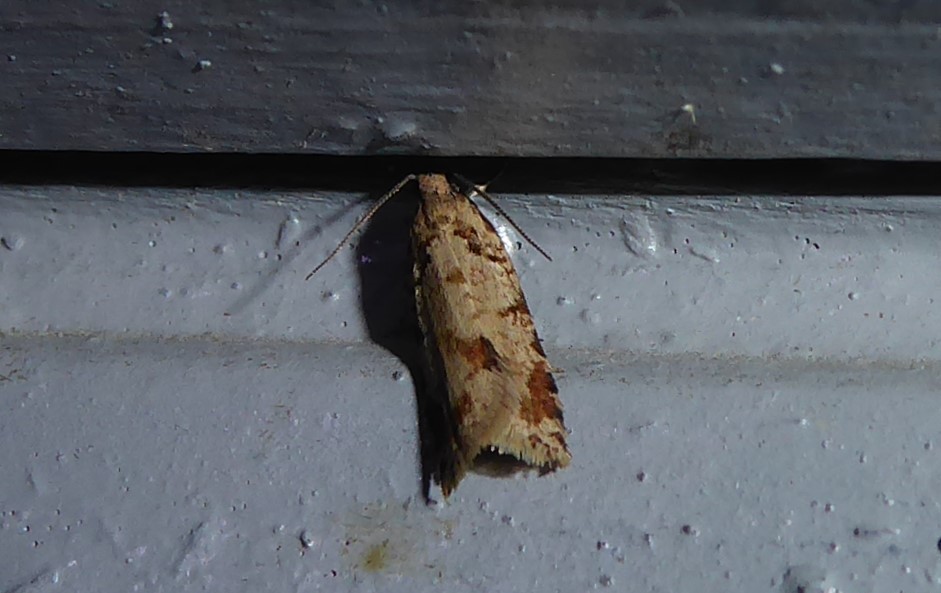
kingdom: Animalia
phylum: Arthropoda
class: Insecta
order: Lepidoptera
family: Tortricidae
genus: Capua
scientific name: Capua semiferana
